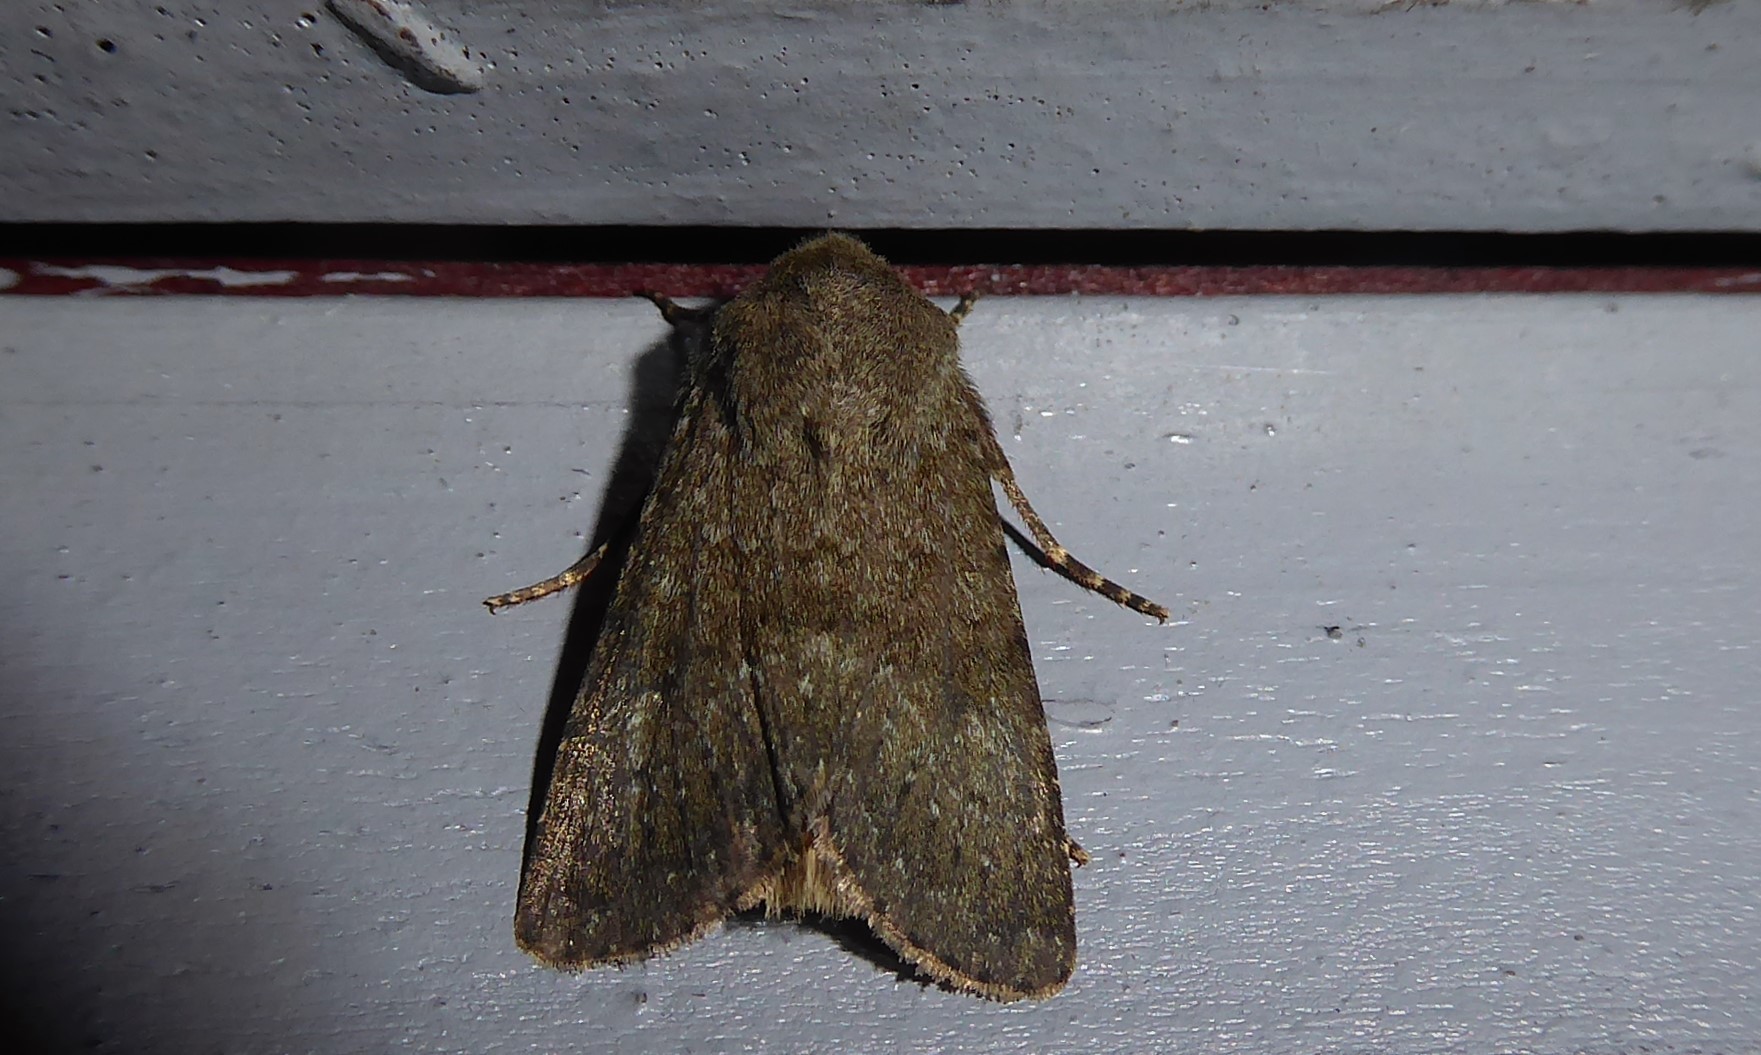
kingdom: Animalia
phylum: Arthropoda
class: Insecta
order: Lepidoptera
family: Noctuidae
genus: Ichneutica
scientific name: Ichneutica moderata
